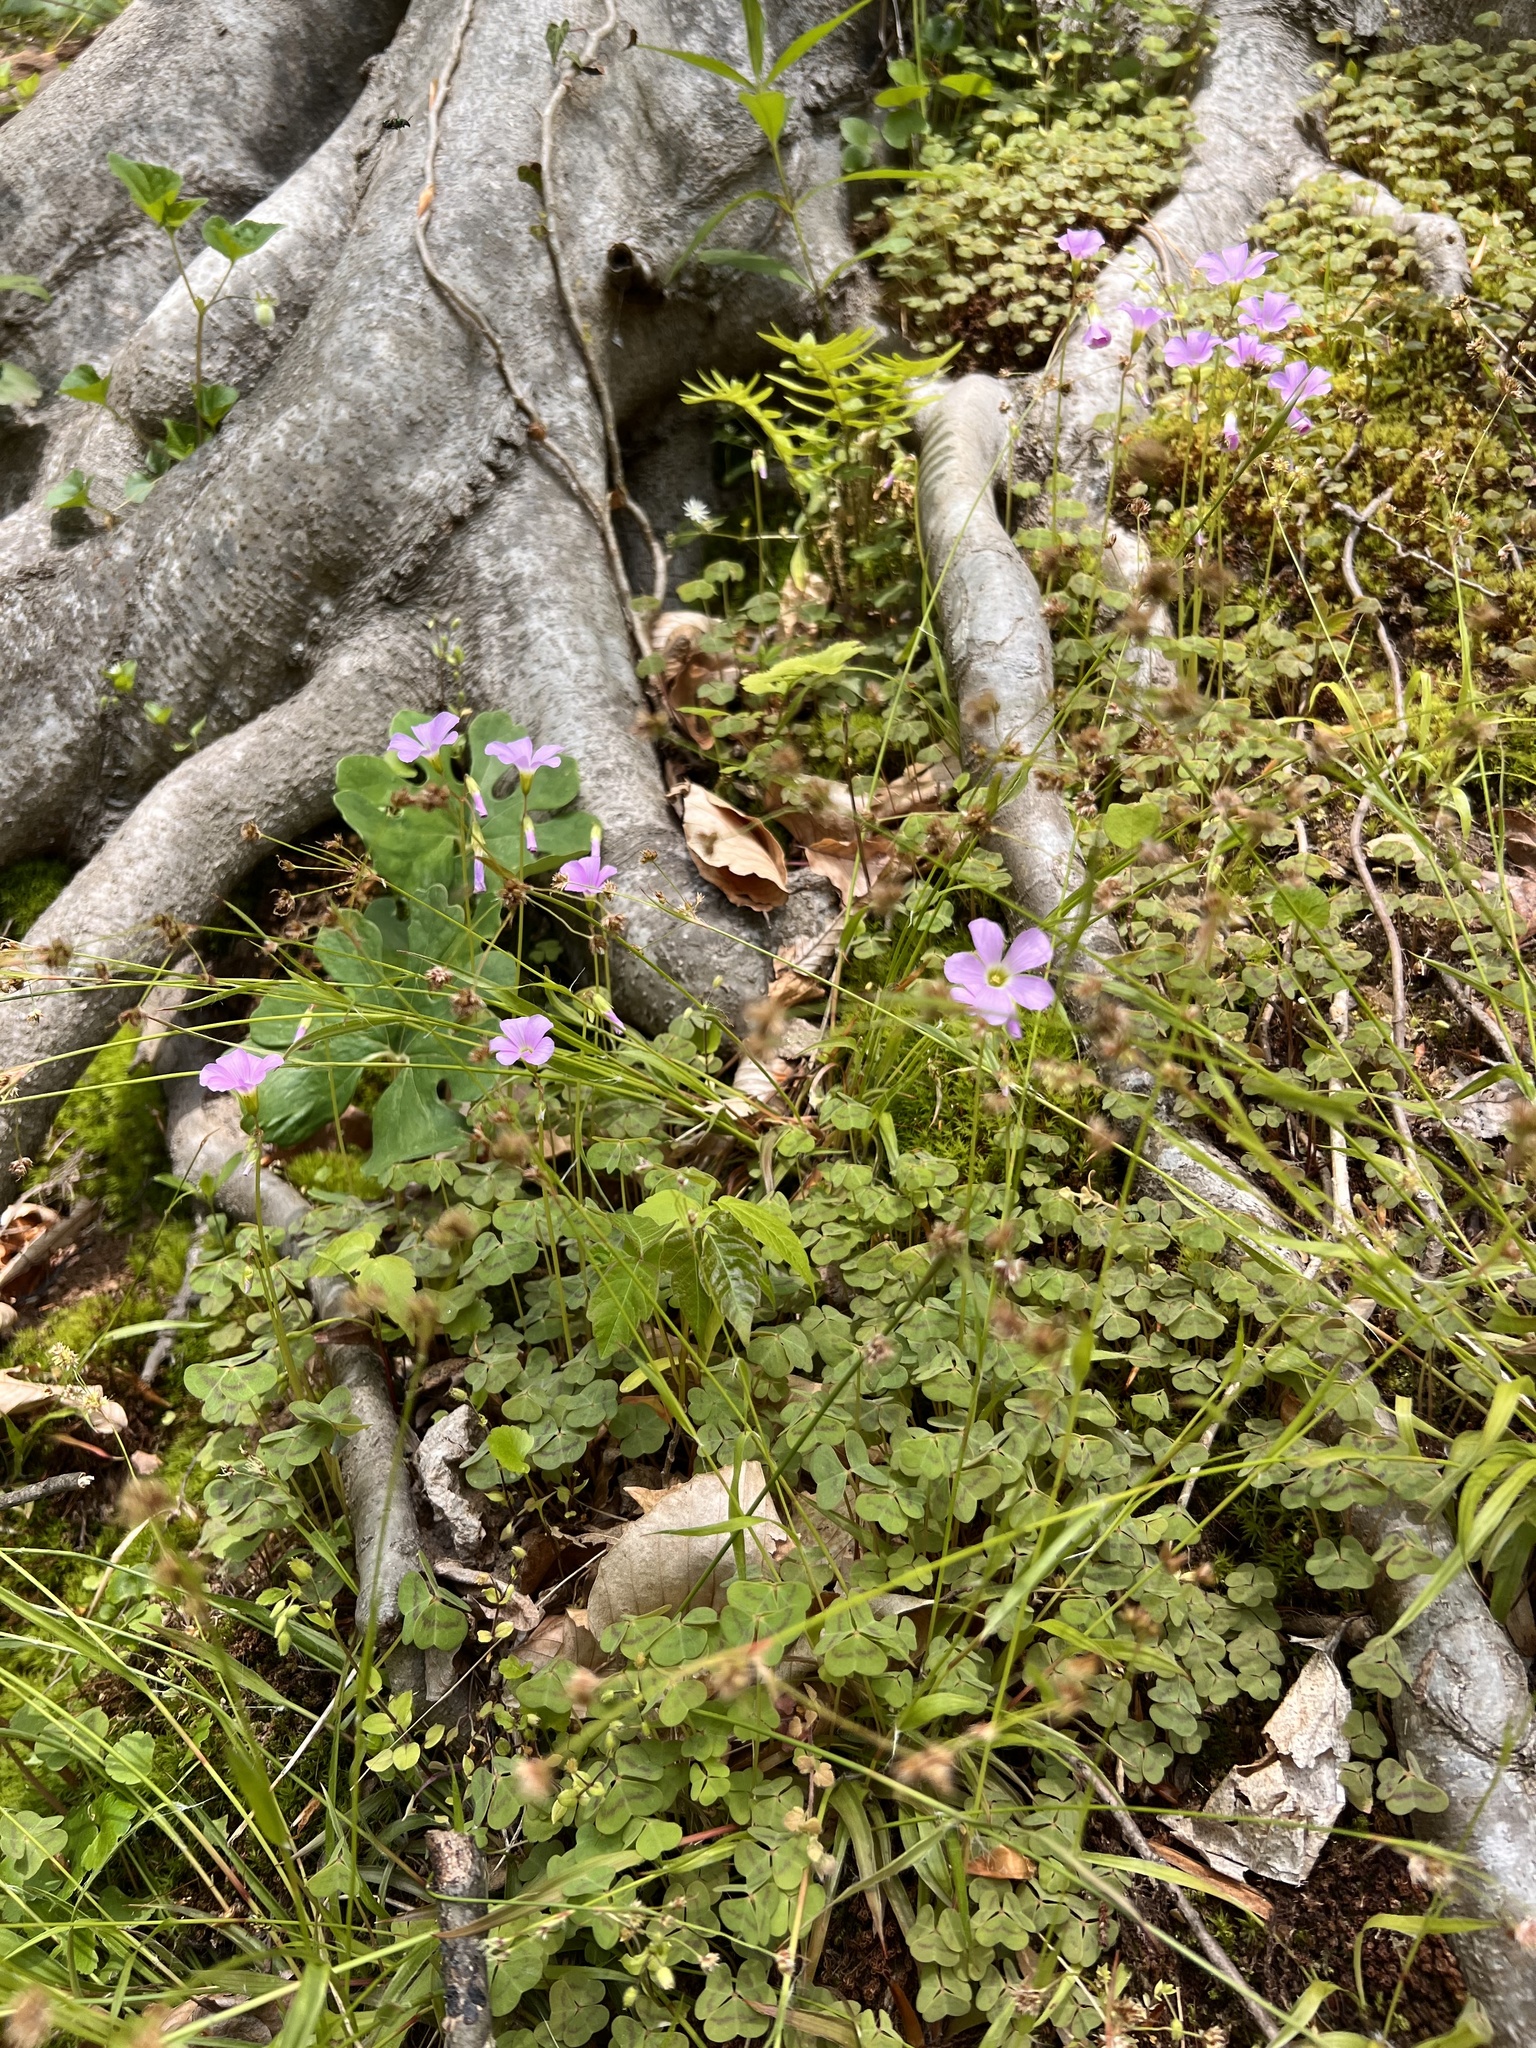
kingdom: Plantae
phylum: Tracheophyta
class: Magnoliopsida
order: Oxalidales
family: Oxalidaceae
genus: Oxalis
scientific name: Oxalis violacea
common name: Violet wood-sorrel
